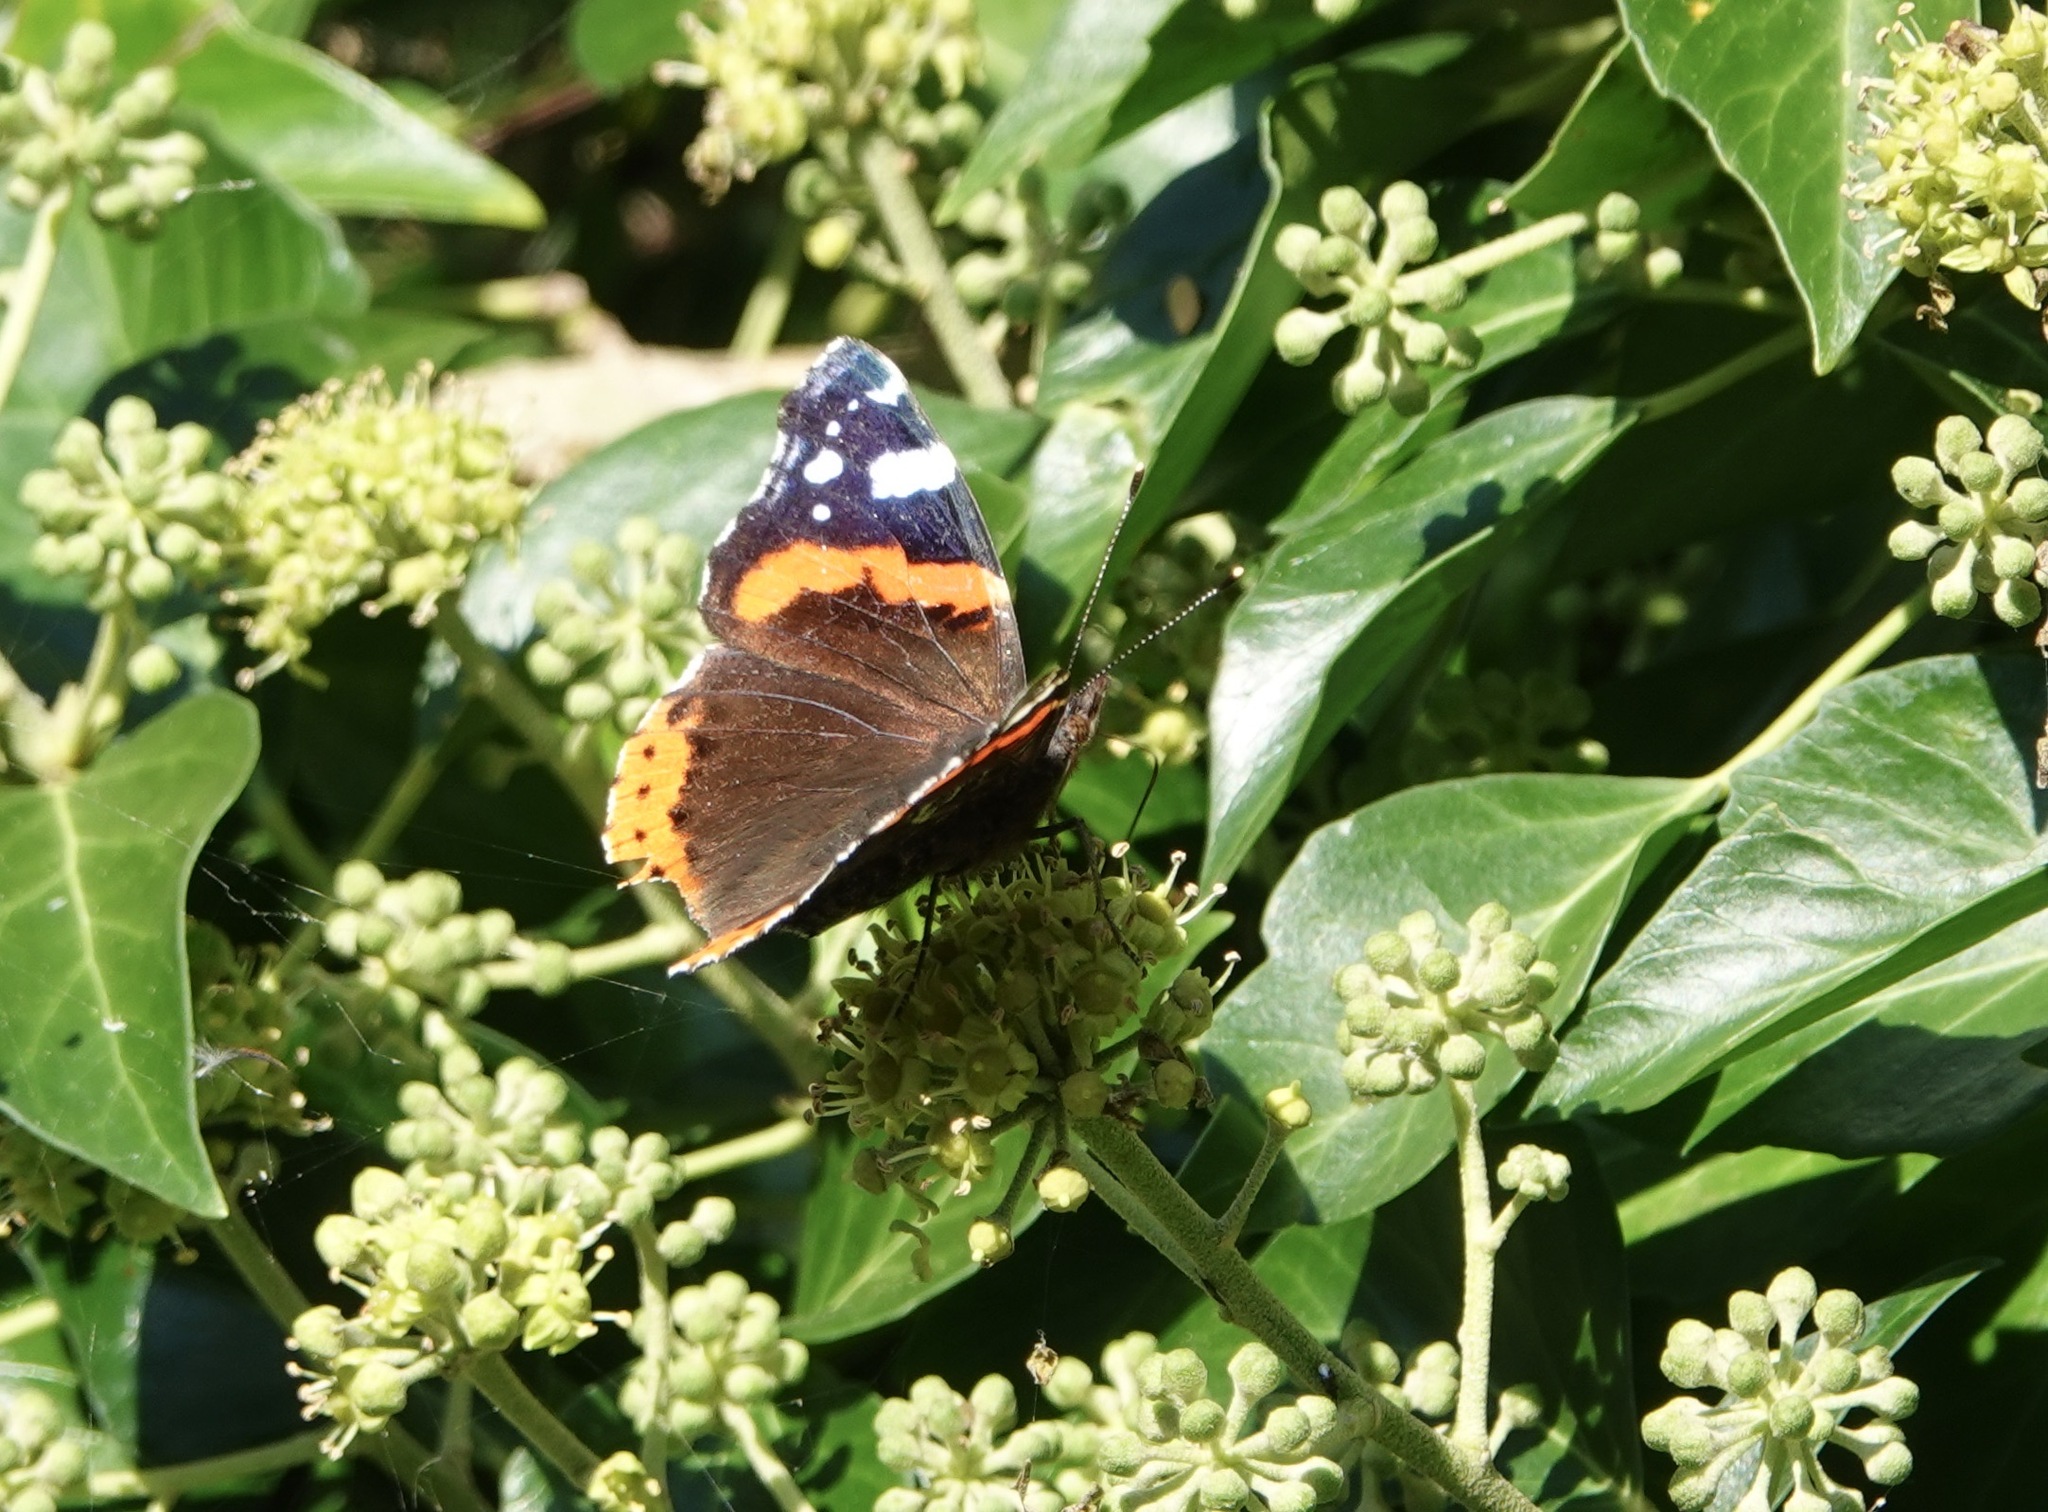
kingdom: Animalia
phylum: Arthropoda
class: Insecta
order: Lepidoptera
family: Nymphalidae
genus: Vanessa
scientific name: Vanessa atalanta
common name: Red admiral
